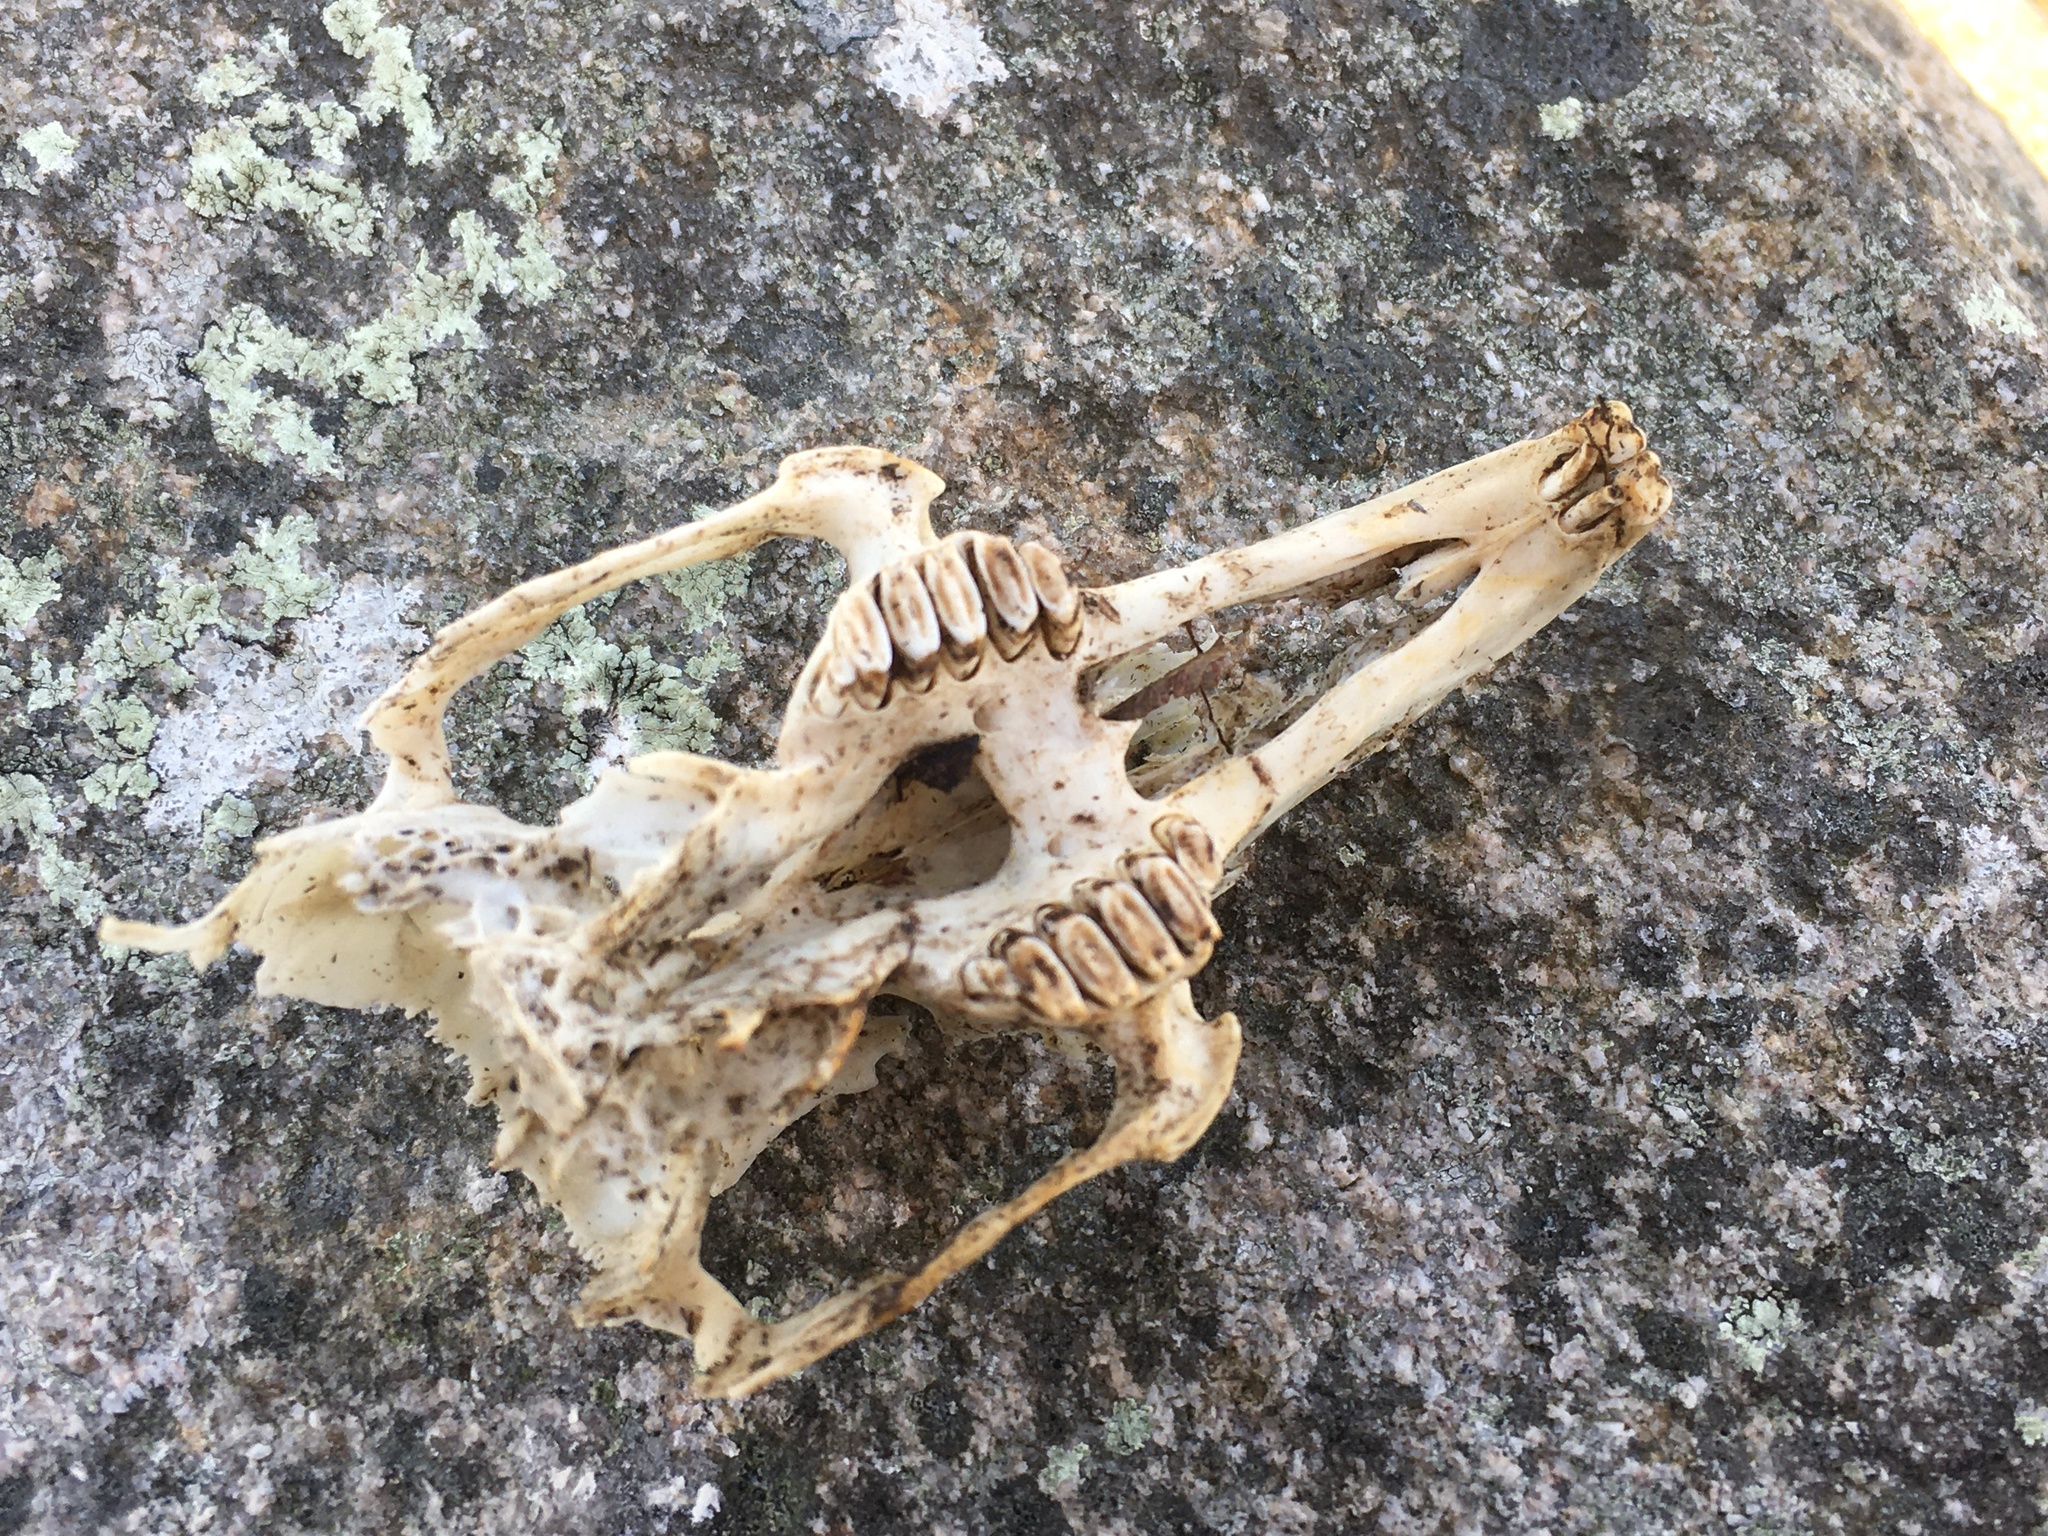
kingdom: Animalia
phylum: Chordata
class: Mammalia
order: Lagomorpha
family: Leporidae
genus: Oryctolagus
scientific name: Oryctolagus cuniculus
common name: European rabbit
